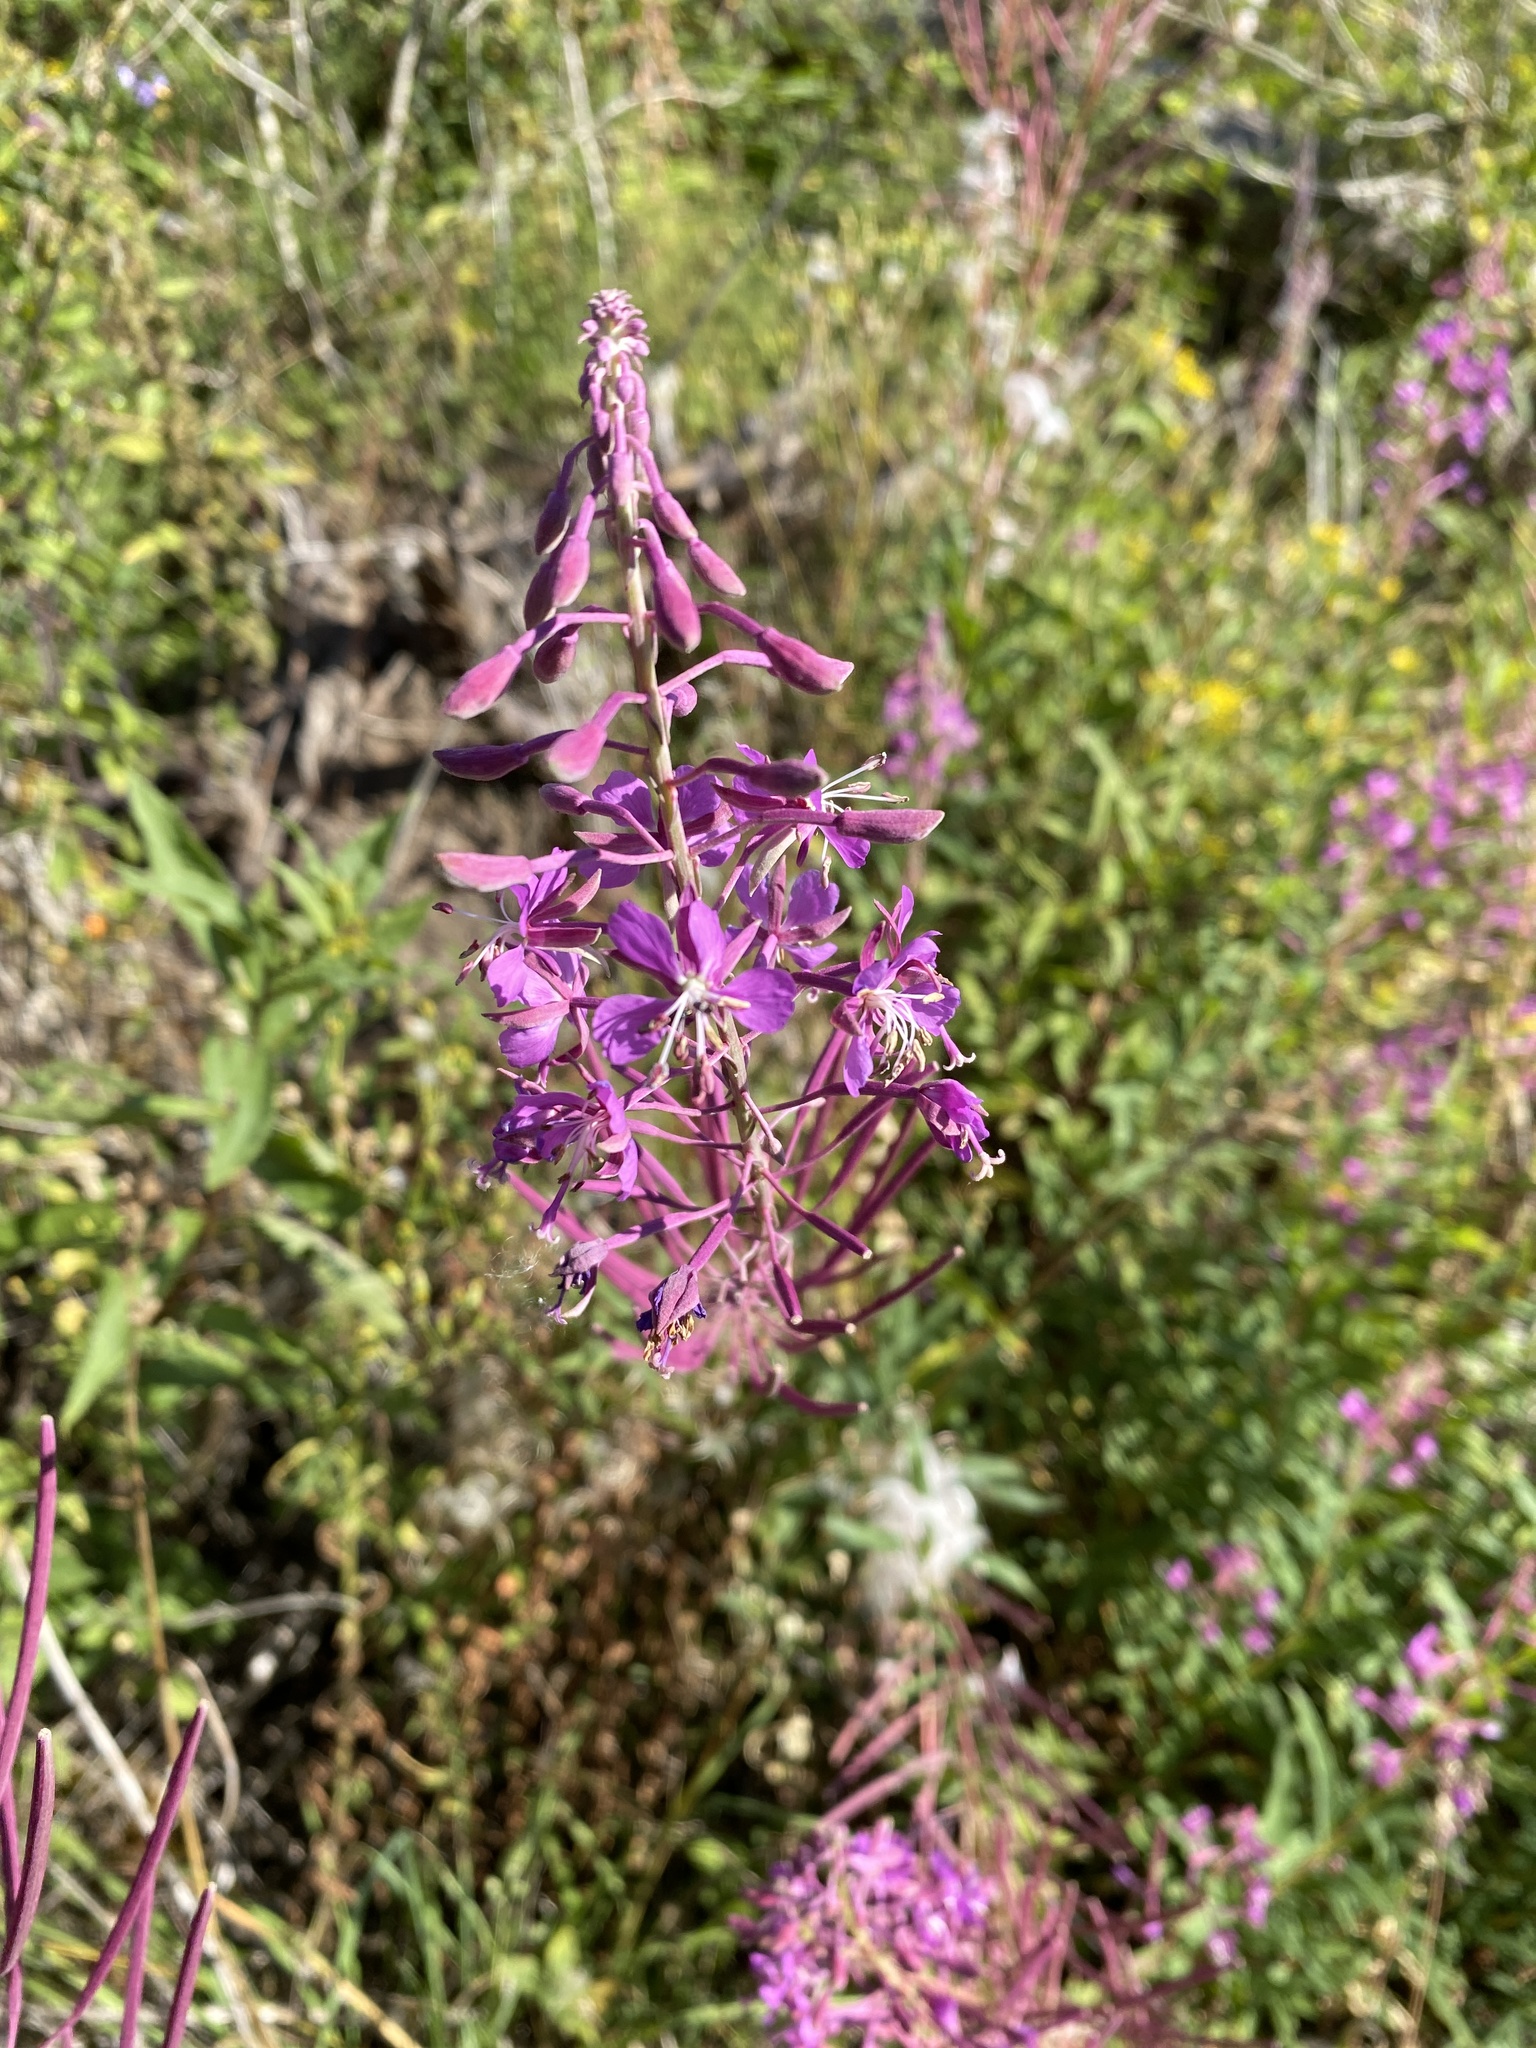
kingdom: Plantae
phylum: Tracheophyta
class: Magnoliopsida
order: Myrtales
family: Onagraceae
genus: Chamaenerion
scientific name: Chamaenerion angustifolium
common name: Fireweed
